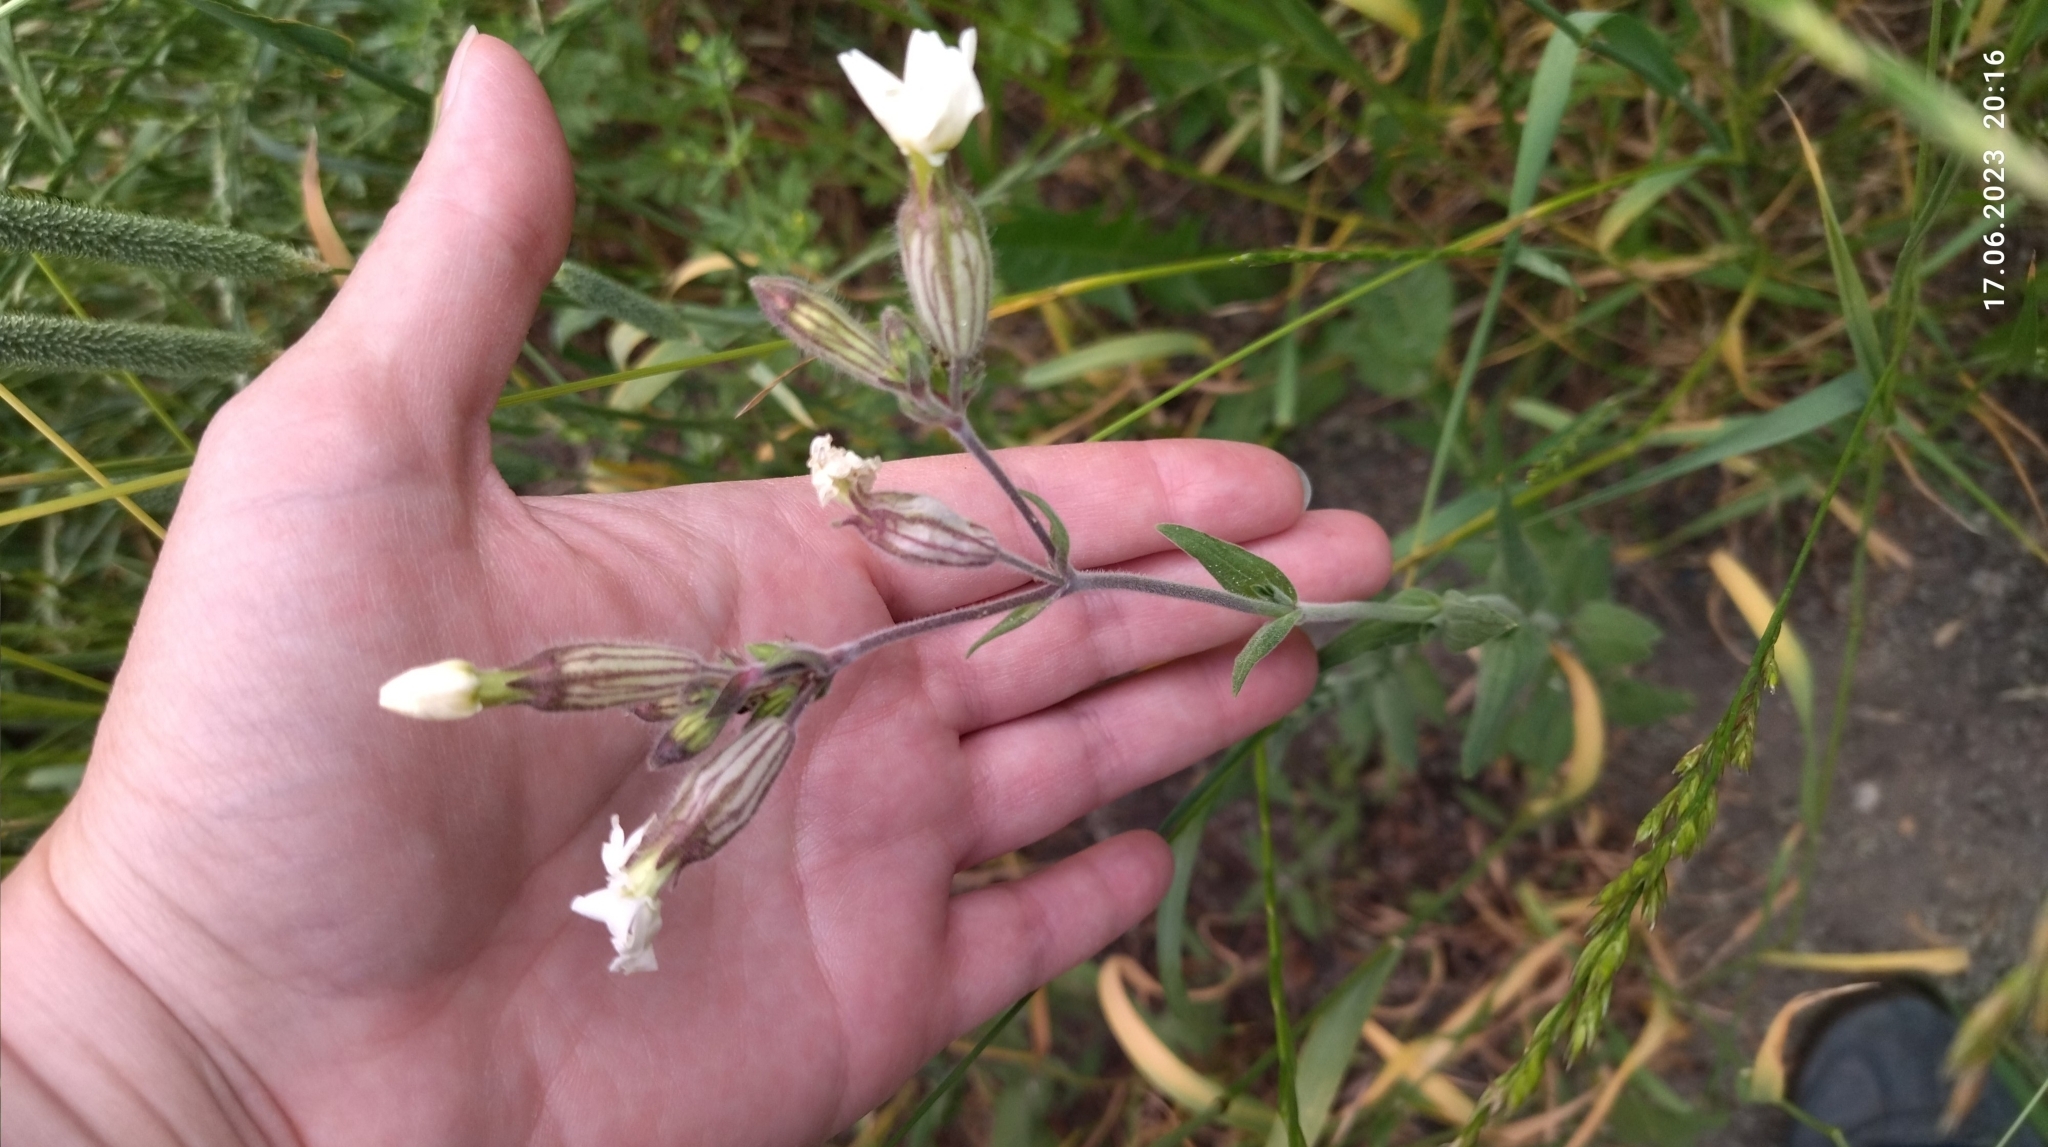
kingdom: Plantae
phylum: Tracheophyta
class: Magnoliopsida
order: Caryophyllales
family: Caryophyllaceae
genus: Silene
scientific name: Silene latifolia
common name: White campion
